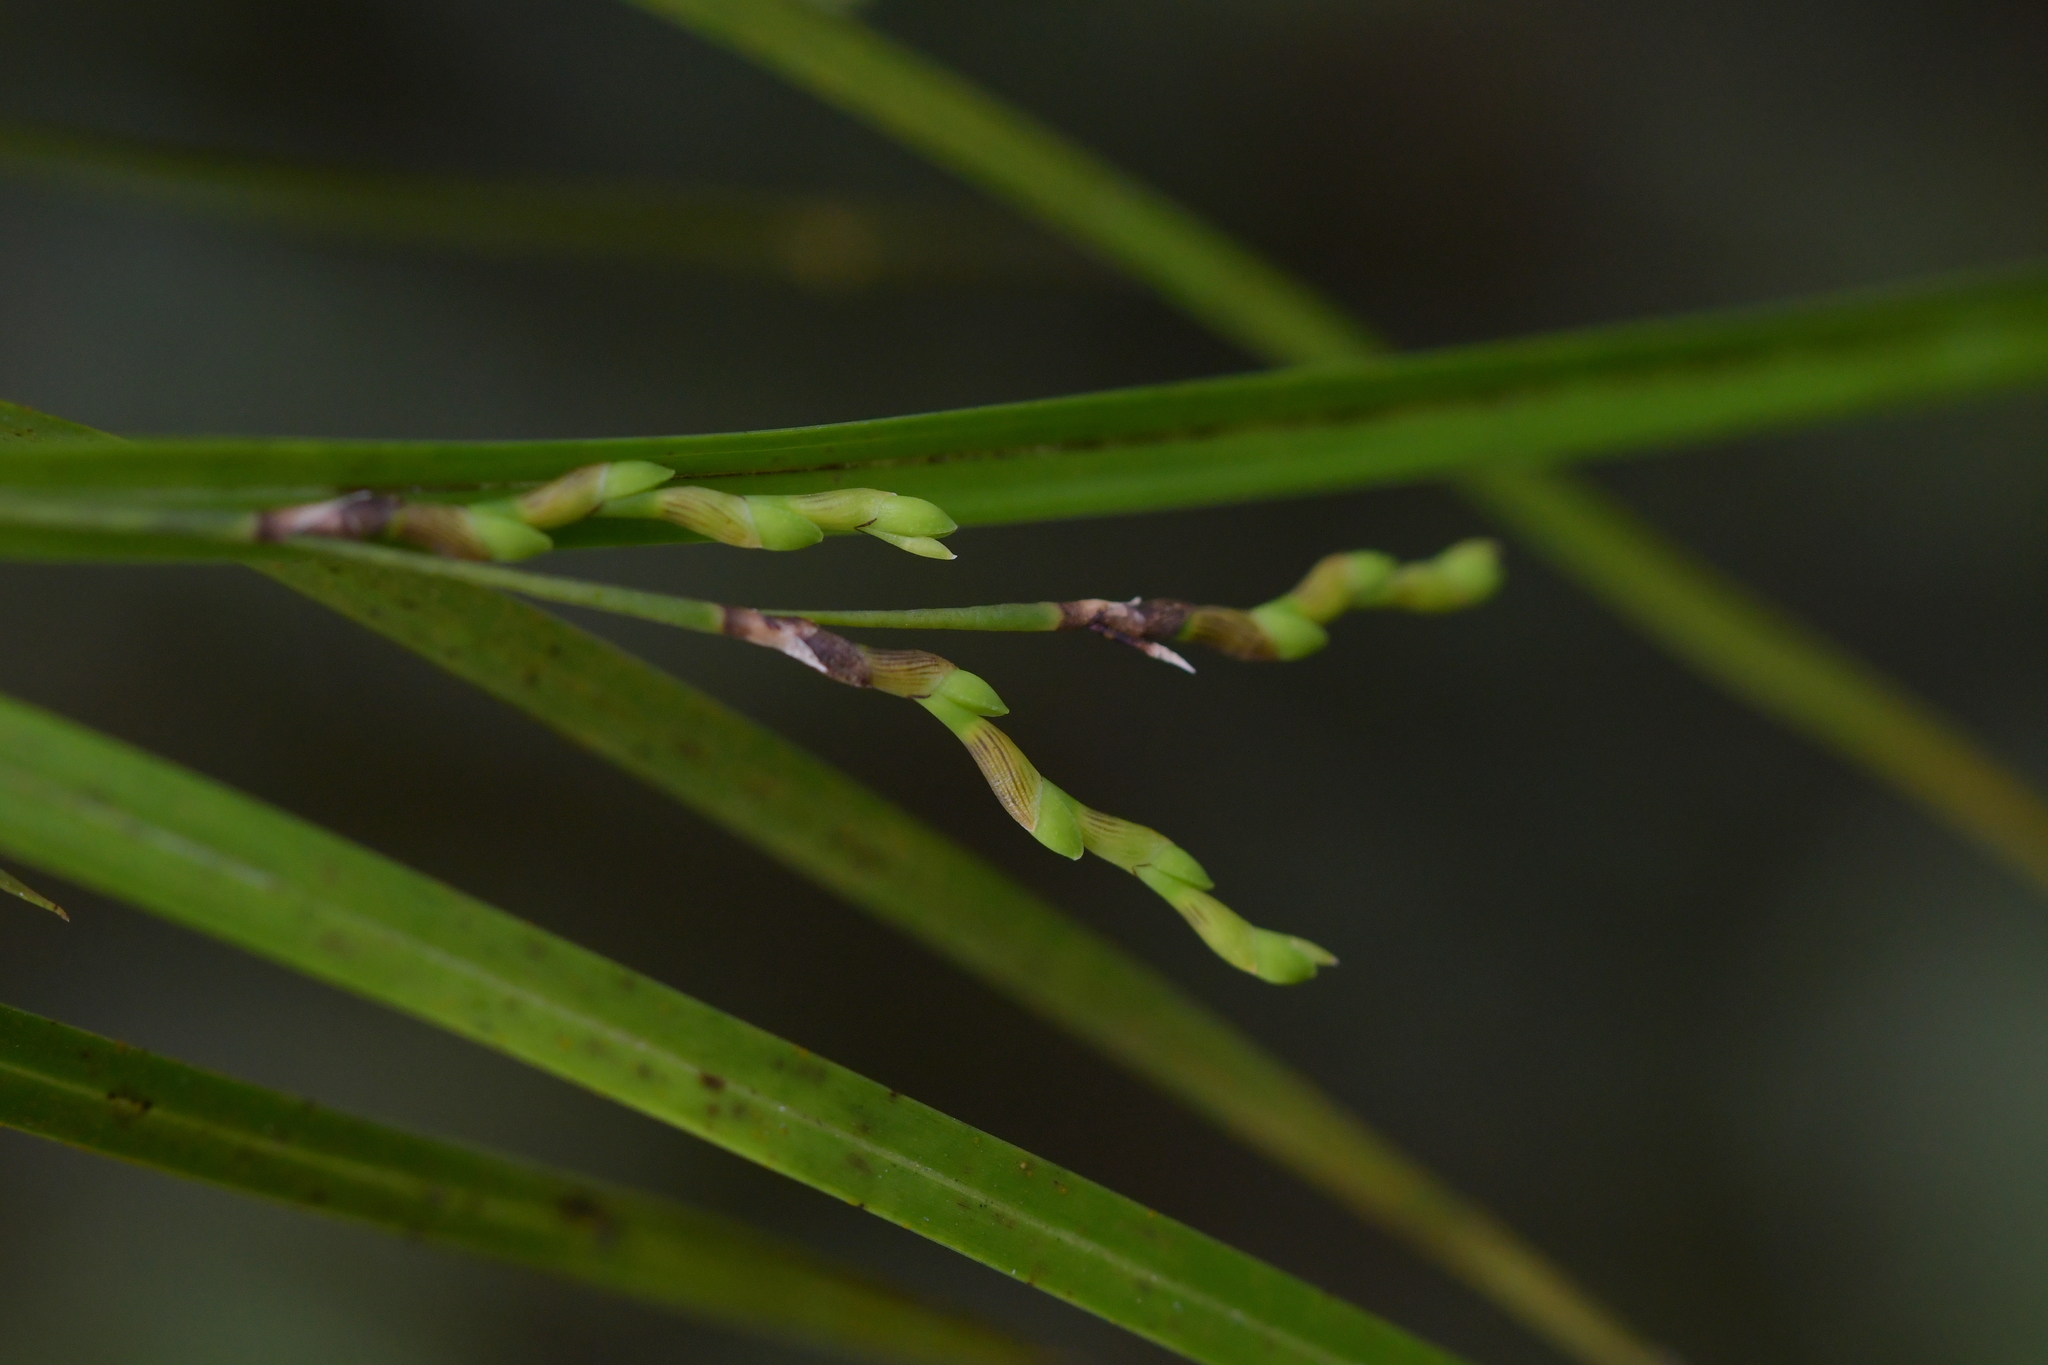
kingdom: Plantae
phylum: Tracheophyta
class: Liliopsida
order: Asparagales
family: Orchidaceae
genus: Earina
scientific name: Earina mucronata
